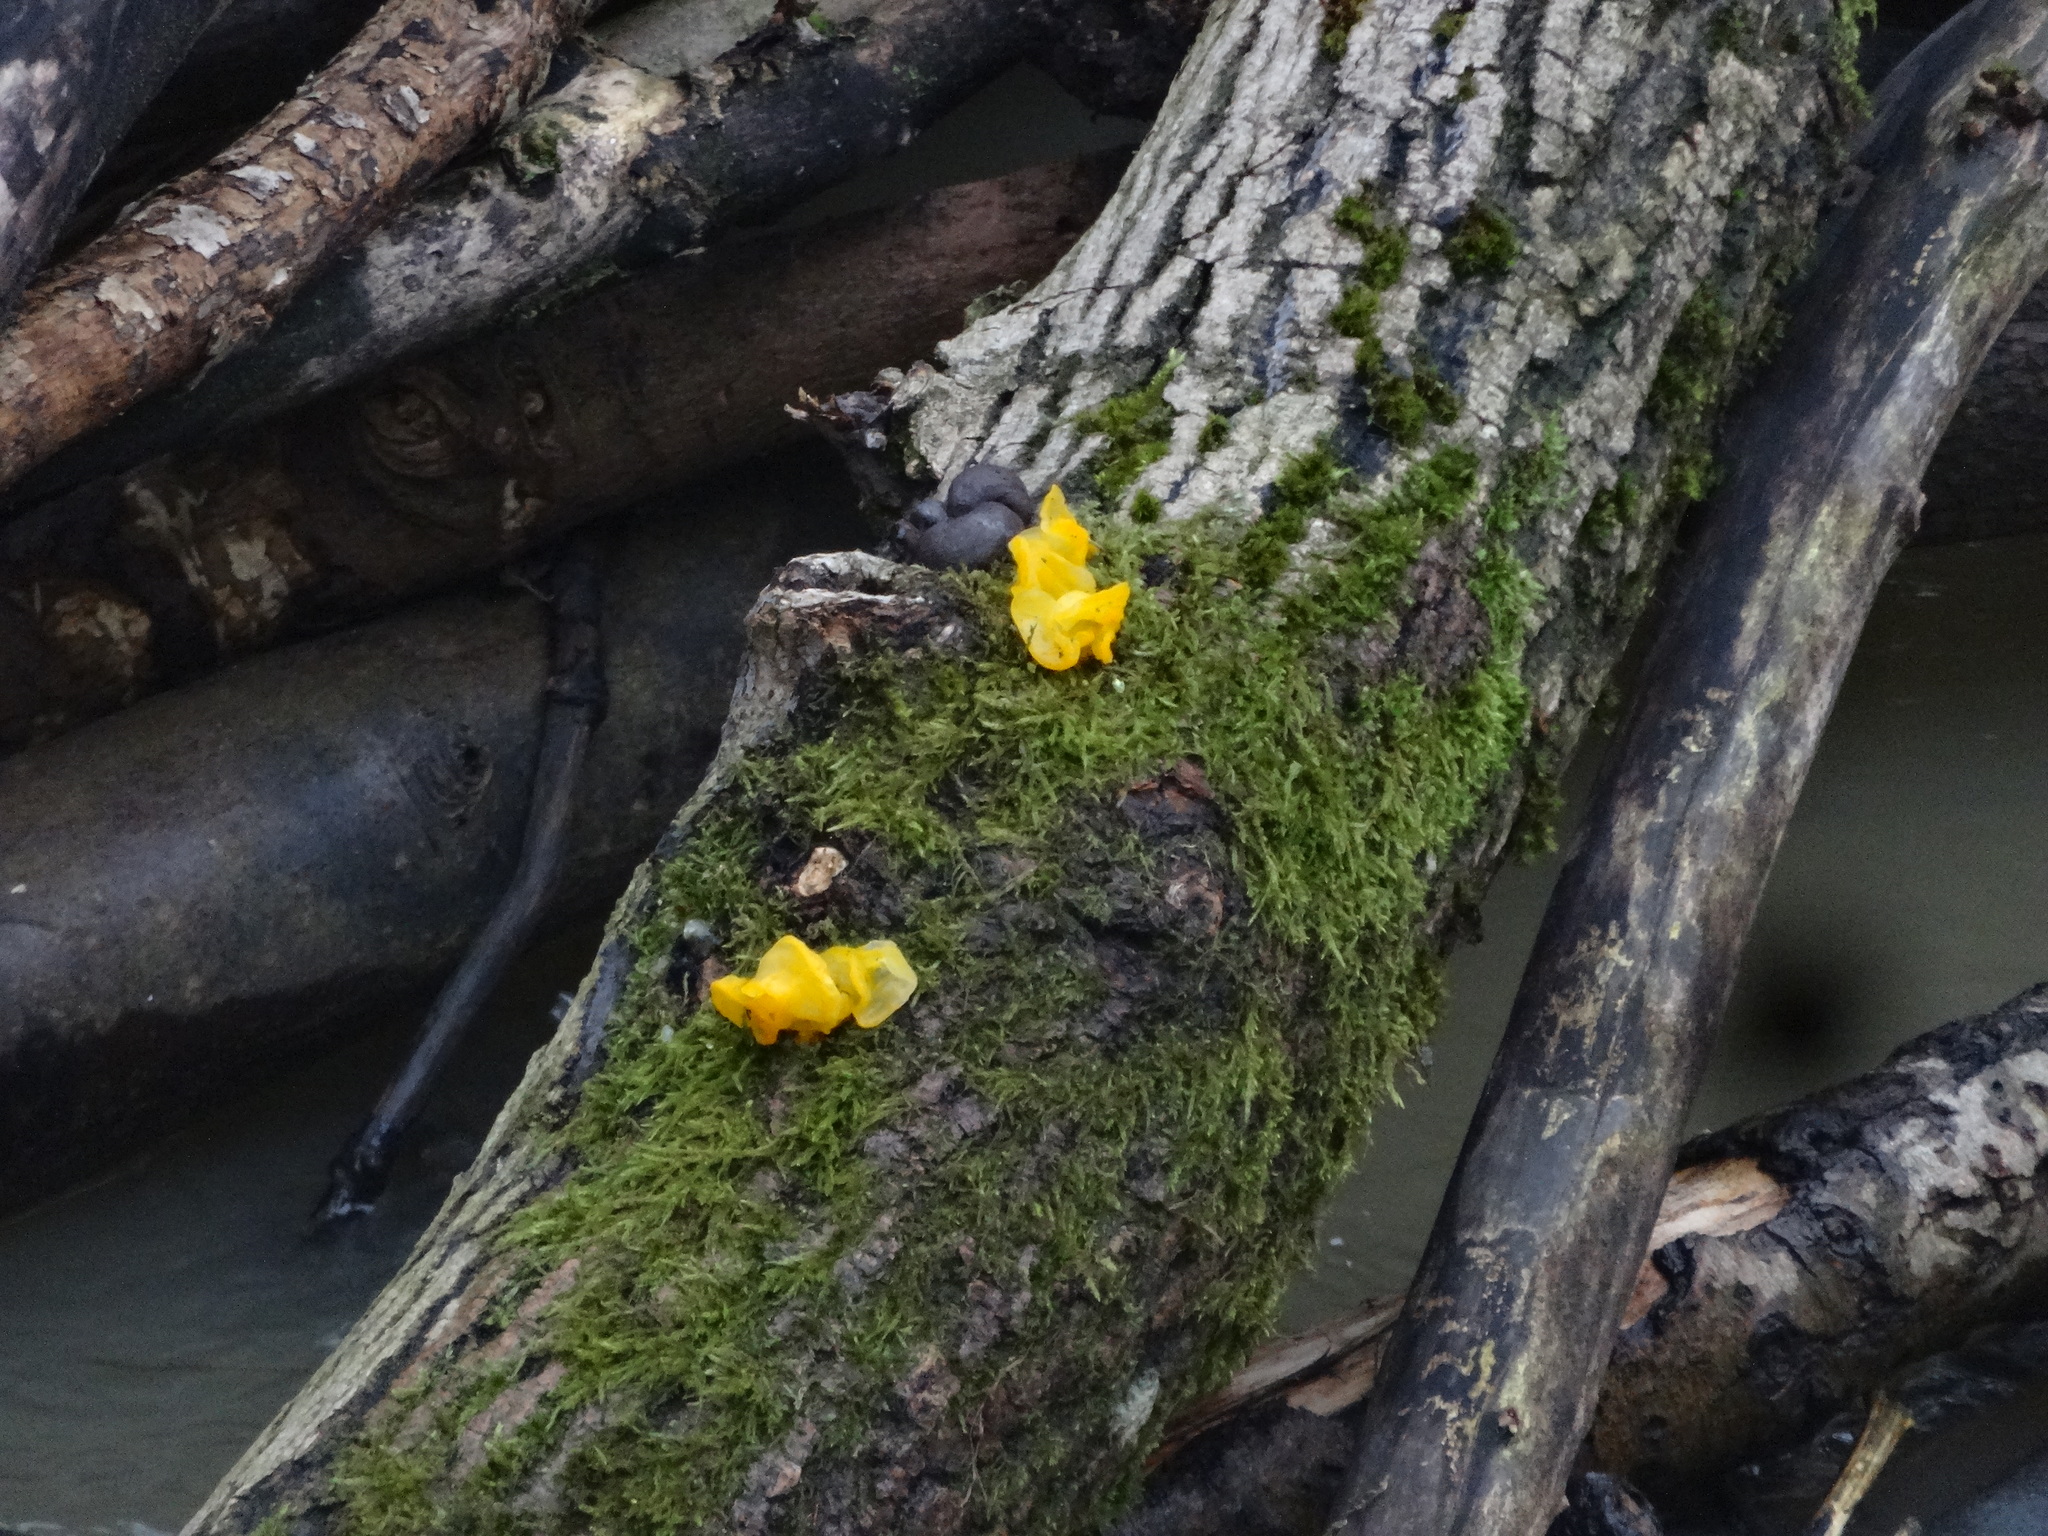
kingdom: Fungi
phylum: Basidiomycota
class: Tremellomycetes
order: Tremellales
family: Tremellaceae
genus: Tremella
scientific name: Tremella mesenterica
